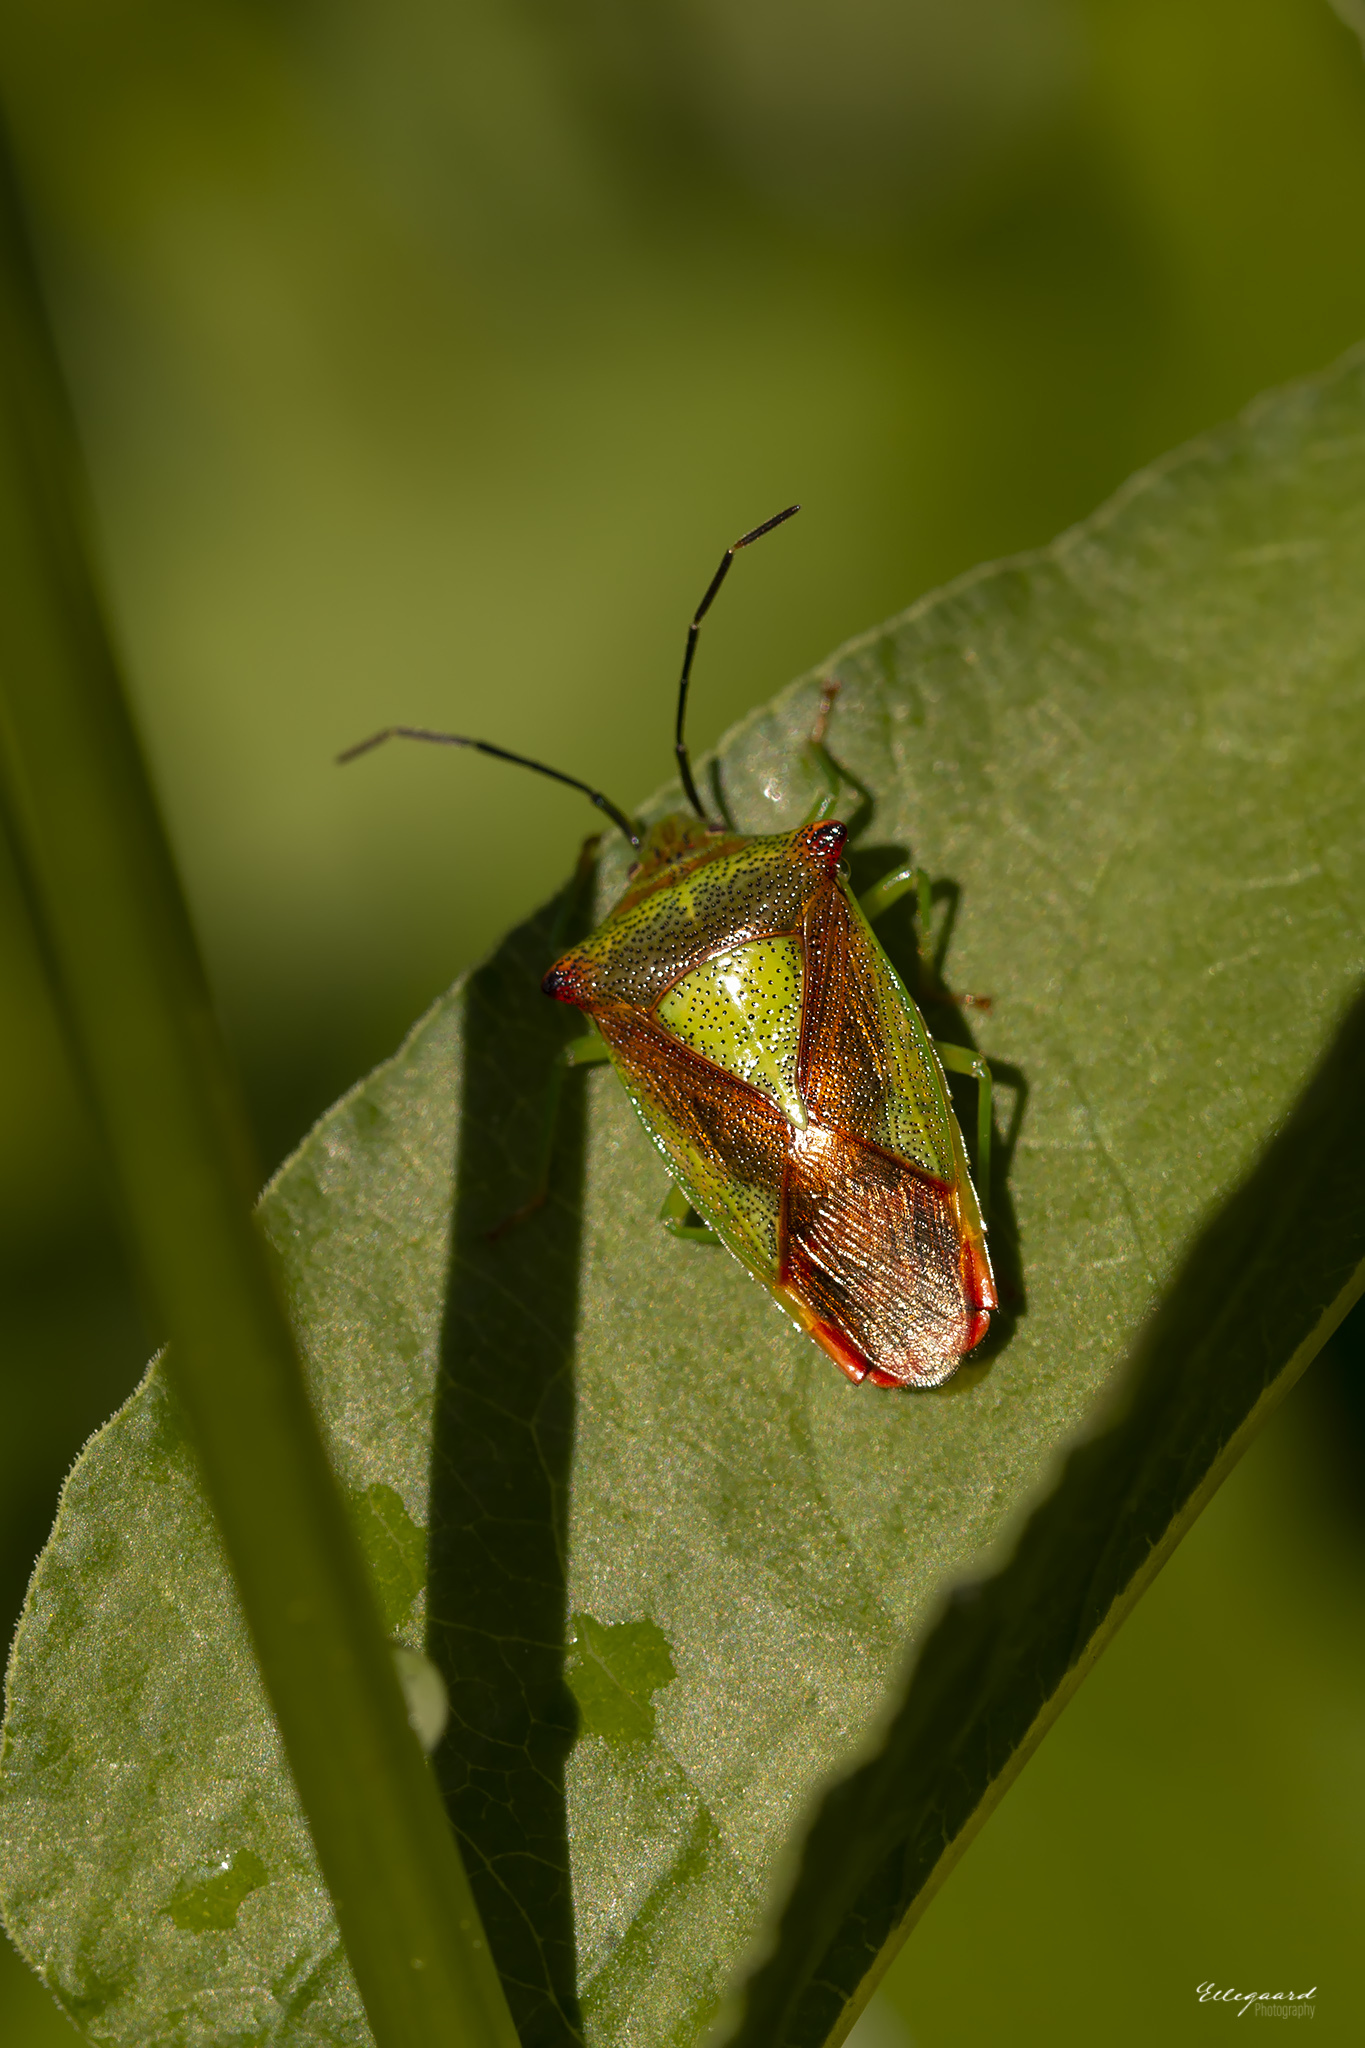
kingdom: Animalia
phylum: Arthropoda
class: Insecta
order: Hemiptera
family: Acanthosomatidae
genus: Acanthosoma
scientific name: Acanthosoma haemorrhoidale
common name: Hawthorn shieldbug
